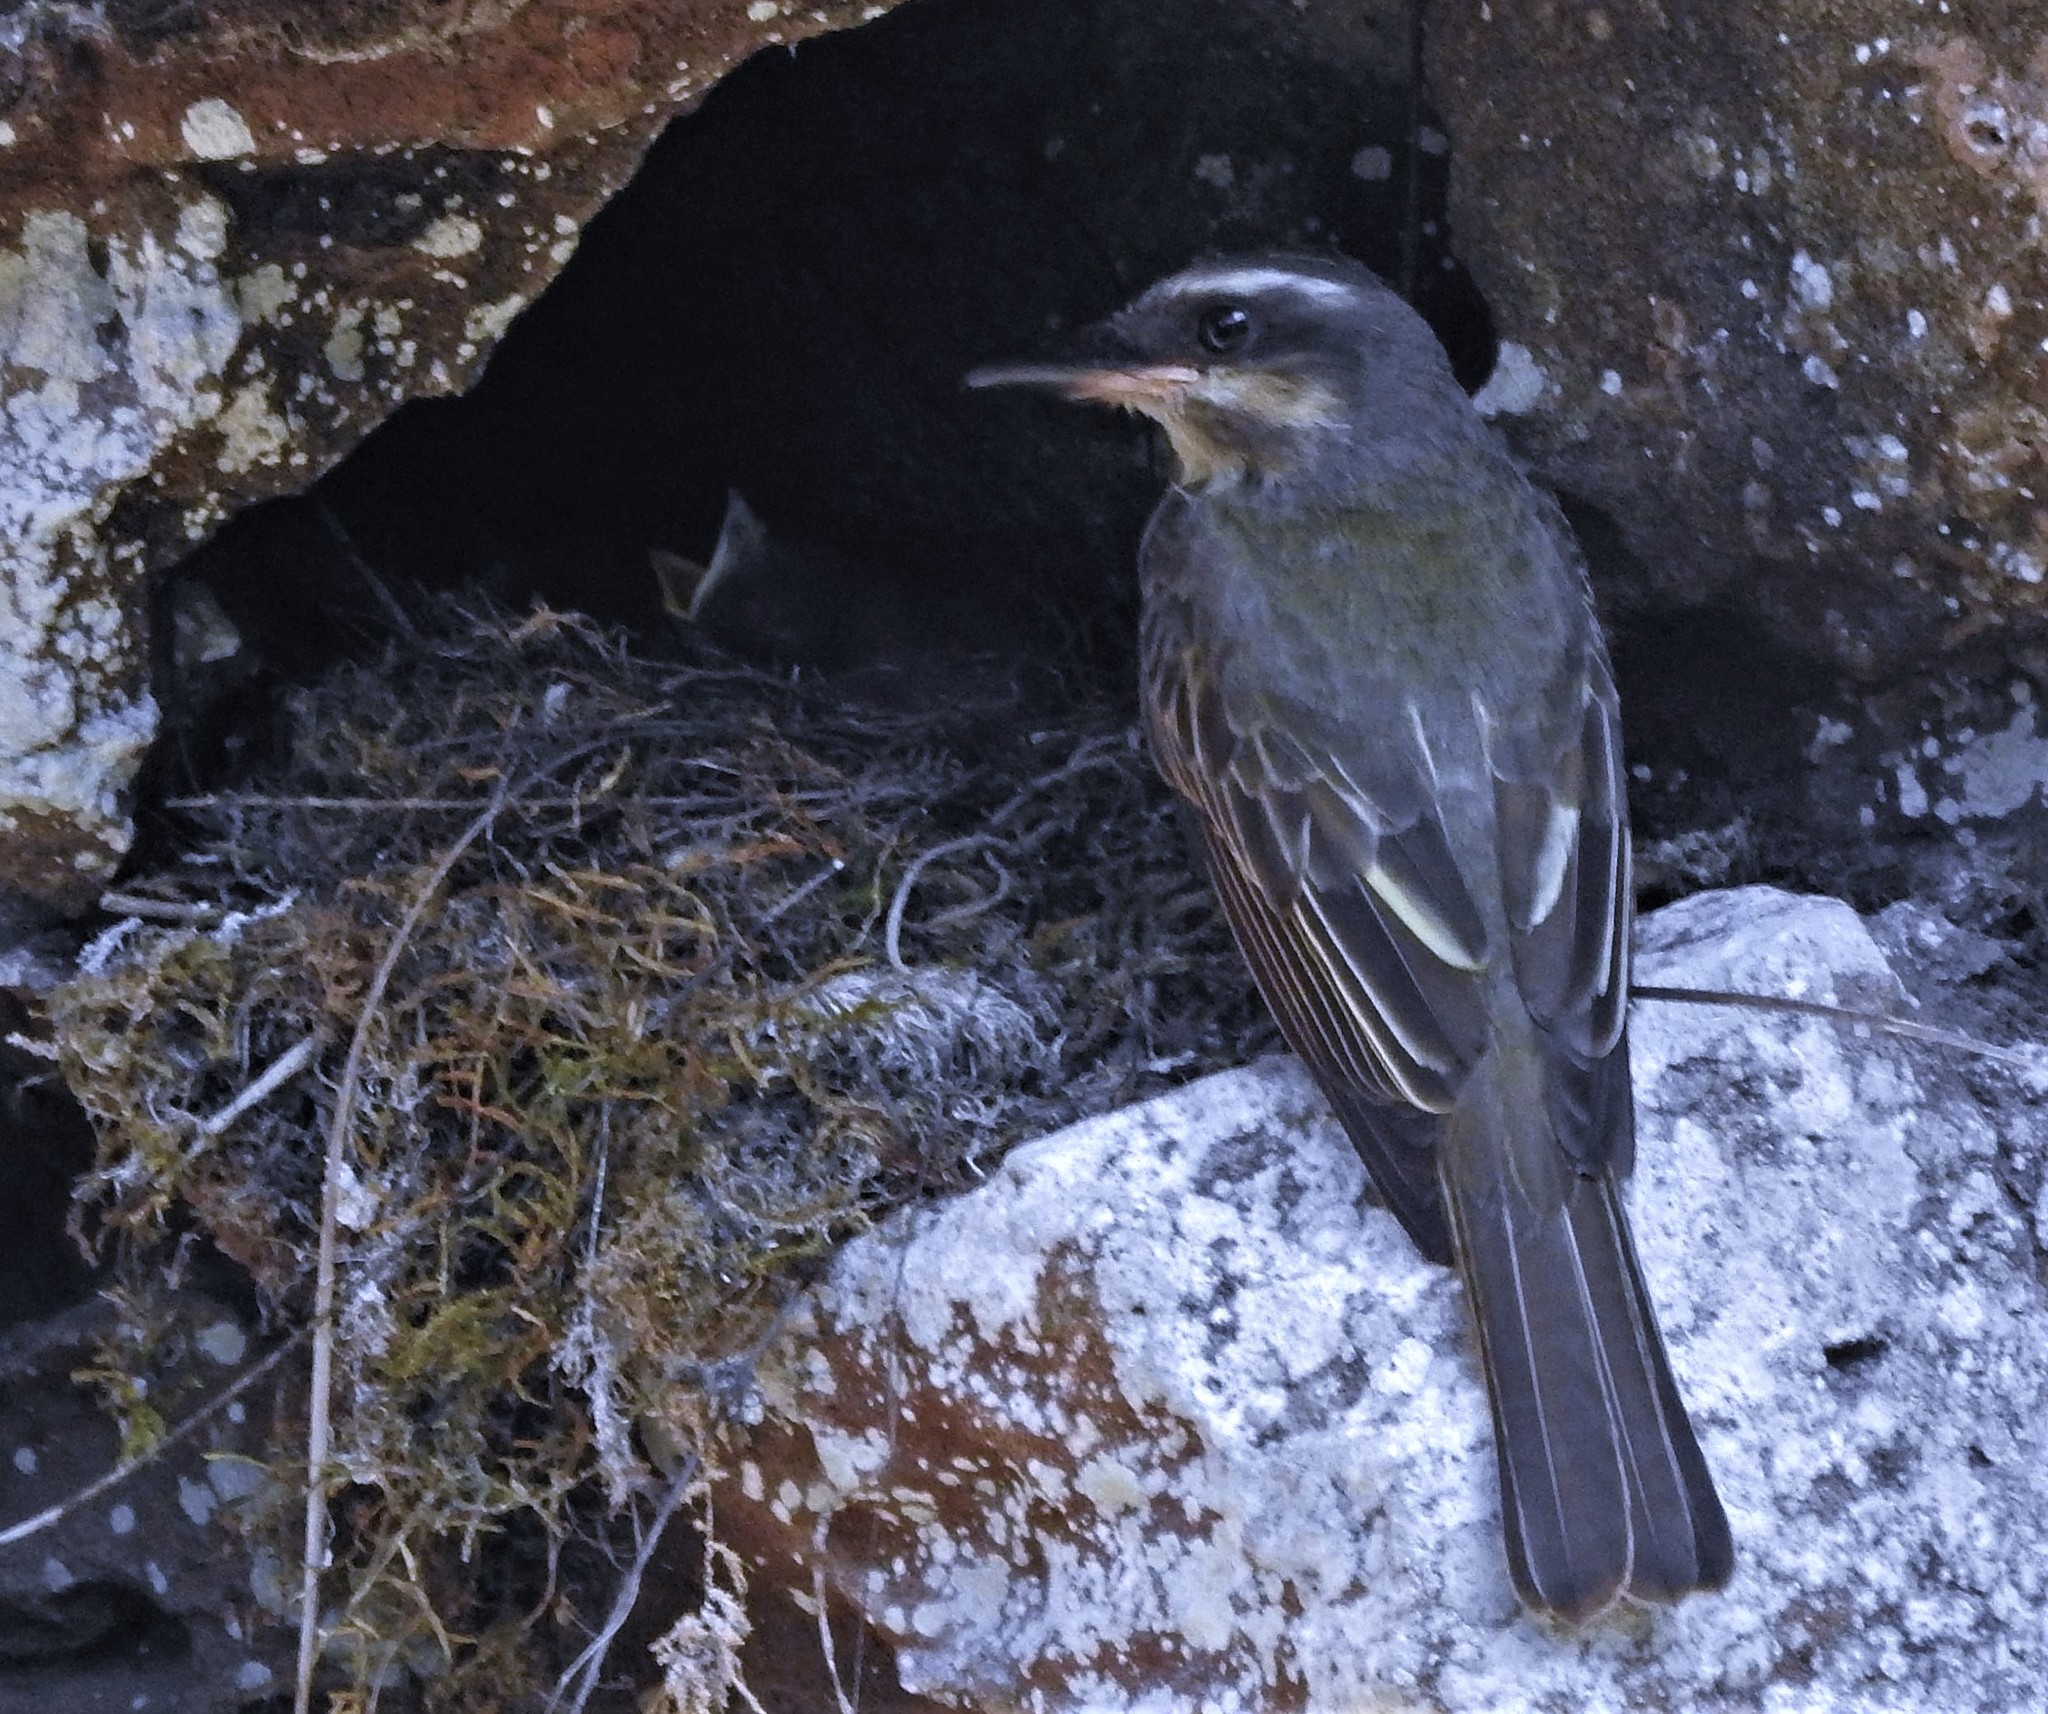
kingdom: Animalia
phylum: Chordata
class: Aves
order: Passeriformes
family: Tyrannidae
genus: Myiodynastes
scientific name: Myiodynastes chrysocephalus
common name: Golden-crowned flycatcher
